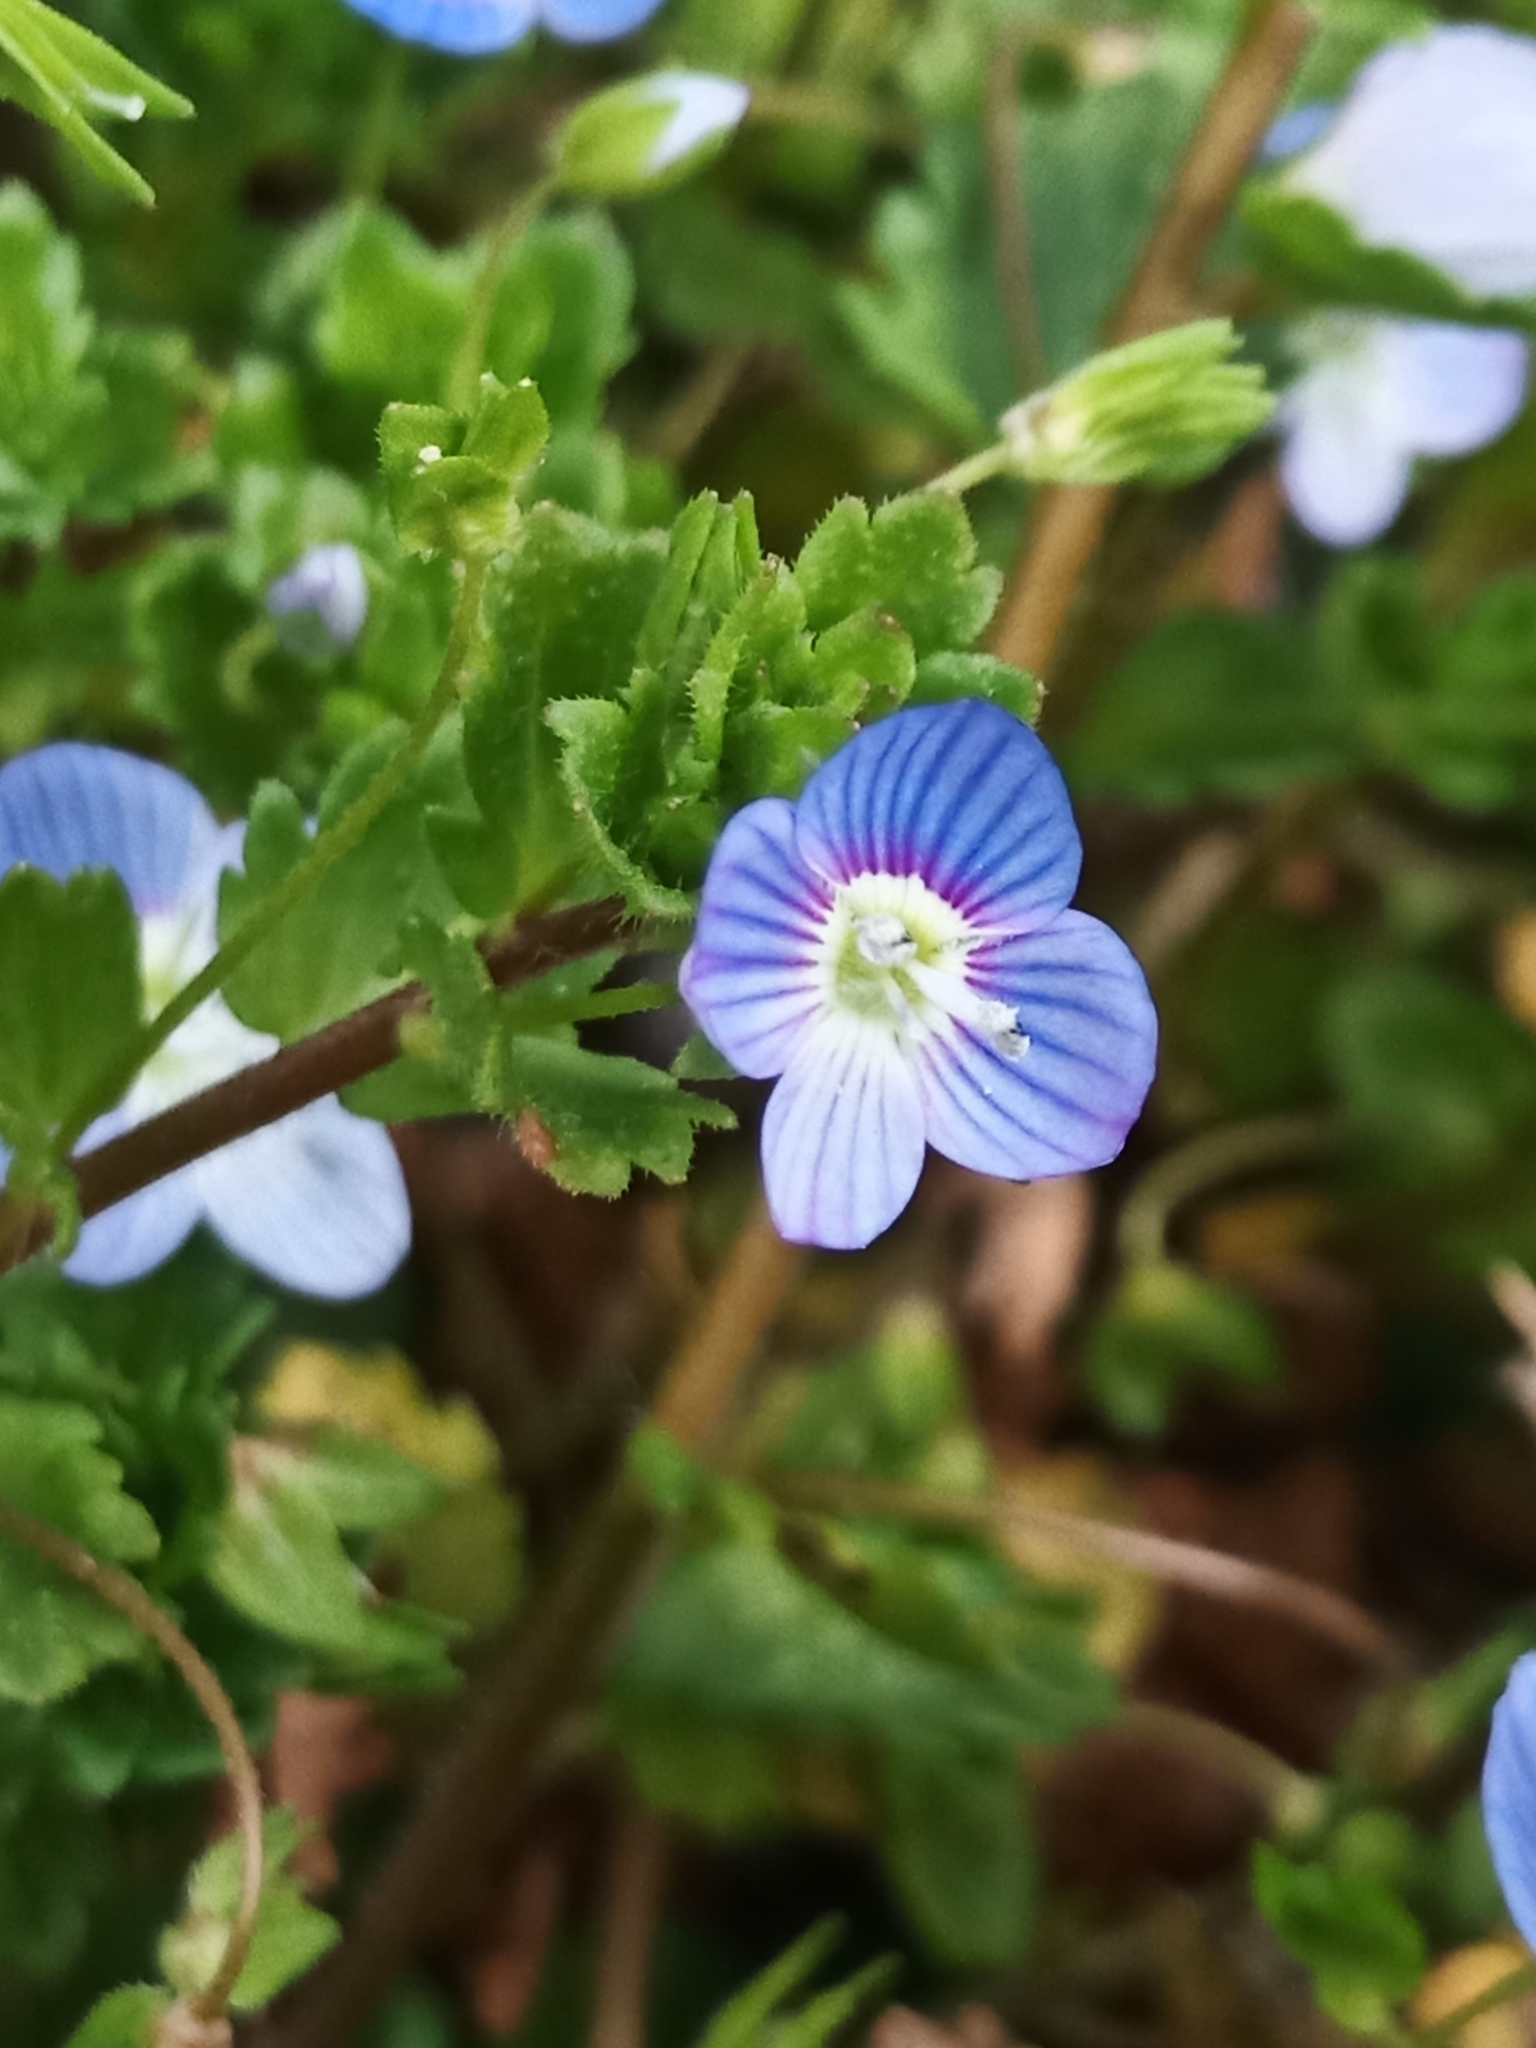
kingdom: Plantae
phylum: Tracheophyta
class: Magnoliopsida
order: Lamiales
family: Plantaginaceae
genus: Veronica
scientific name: Veronica persica
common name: Common field-speedwell
